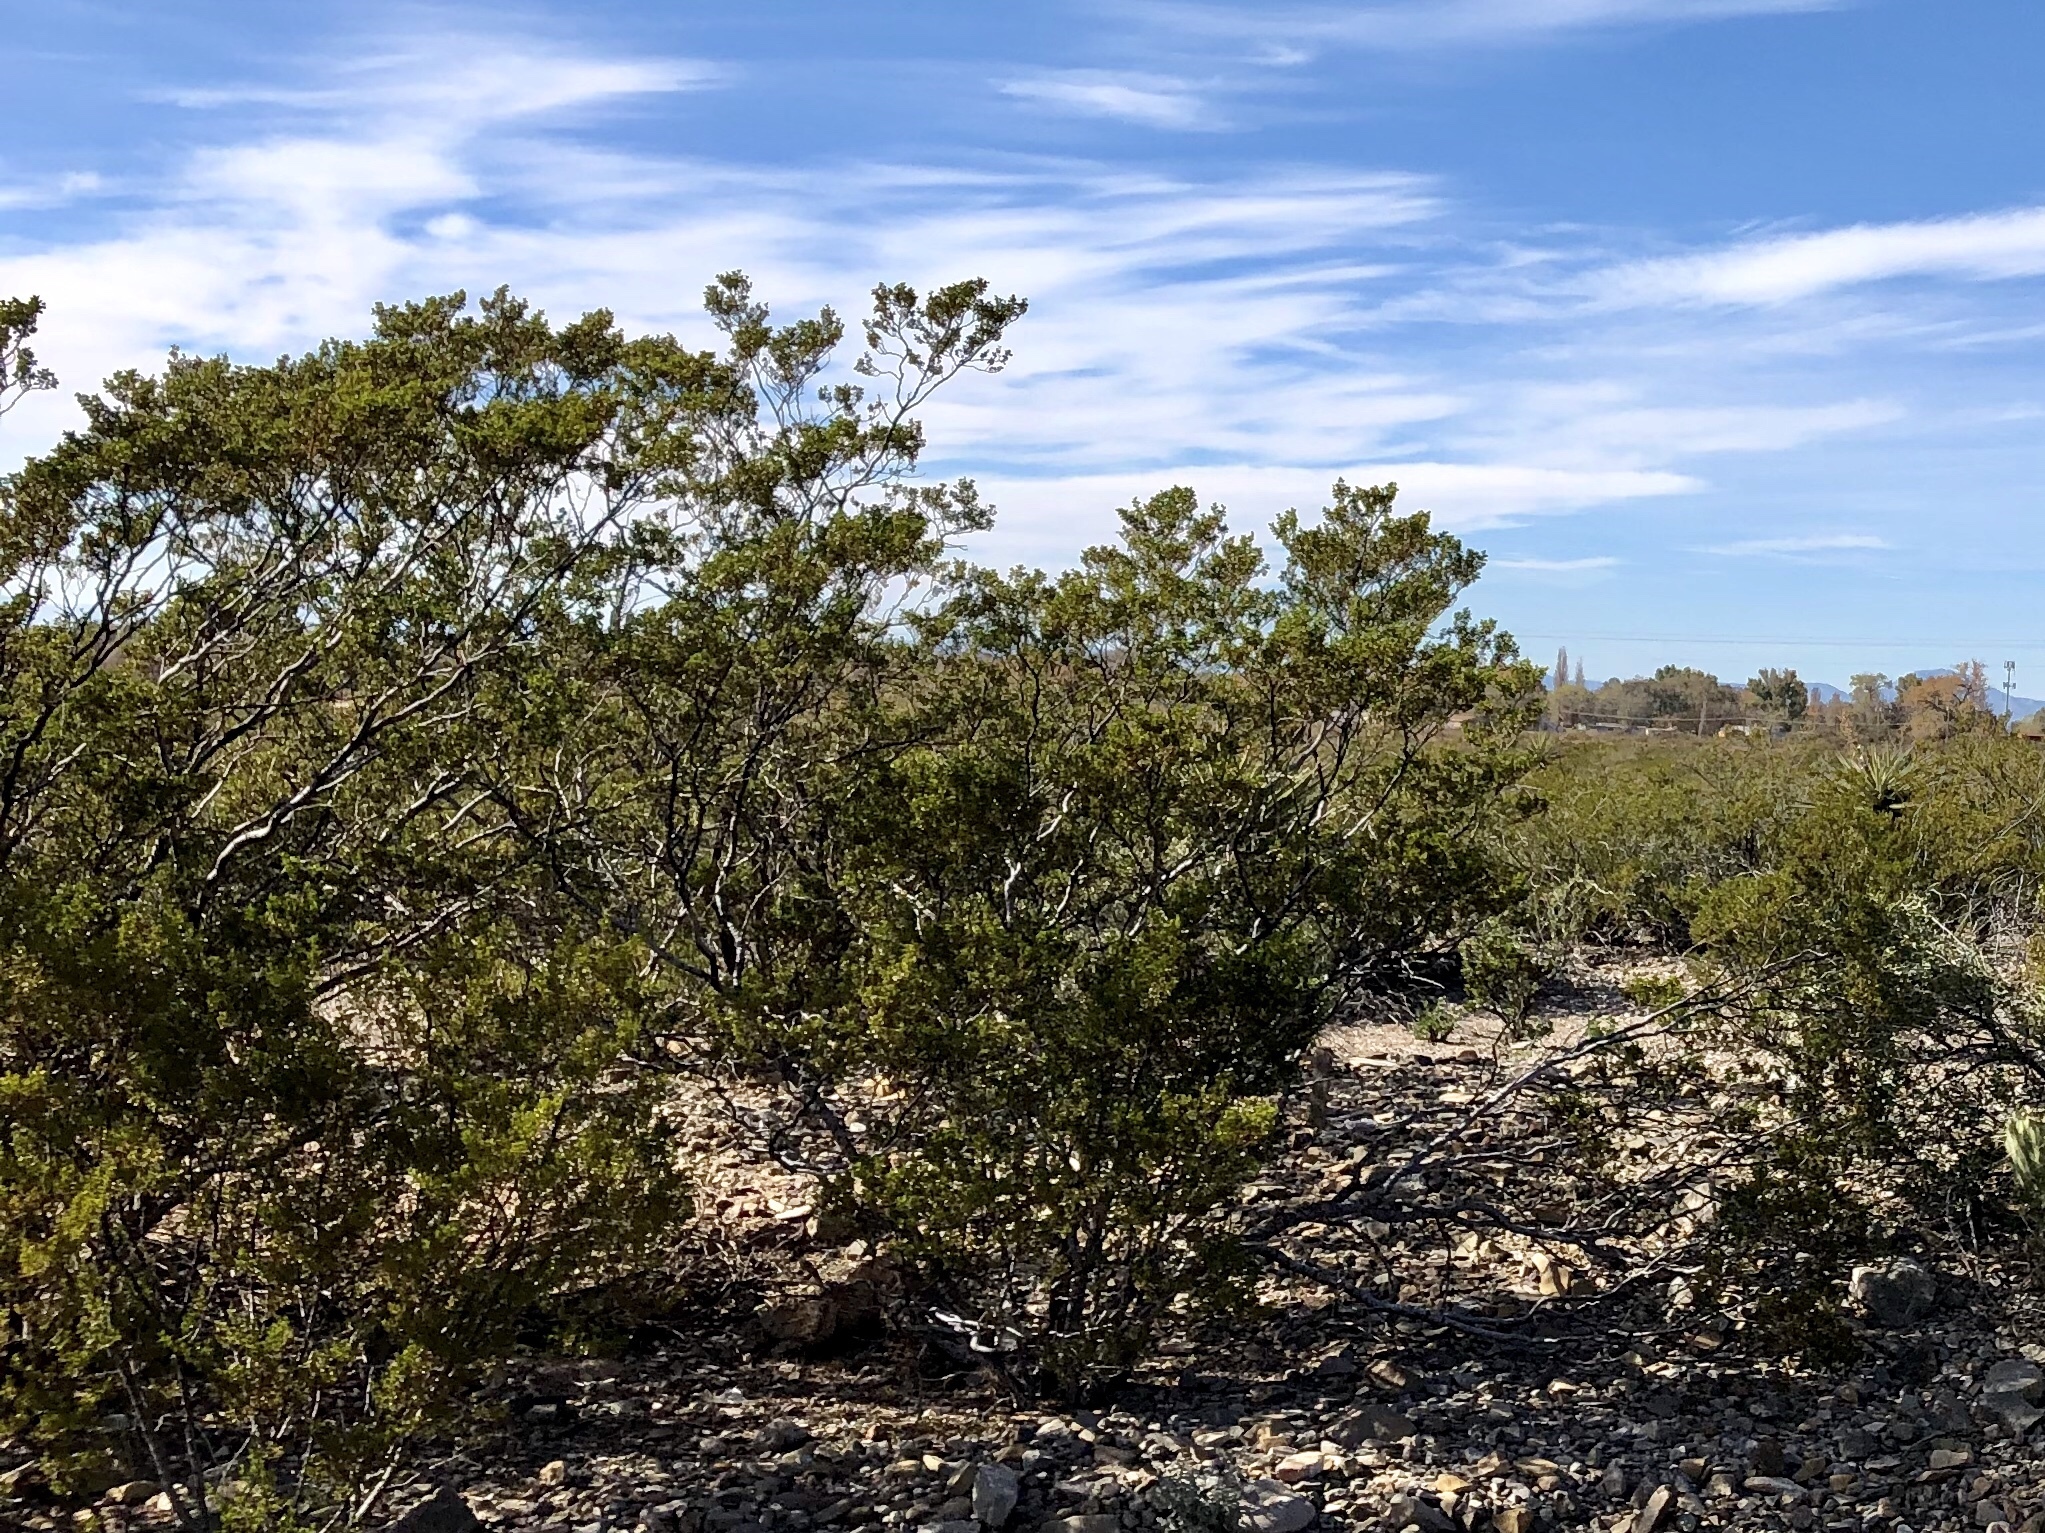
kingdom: Plantae
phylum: Tracheophyta
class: Magnoliopsida
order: Zygophyllales
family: Zygophyllaceae
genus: Larrea
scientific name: Larrea tridentata
